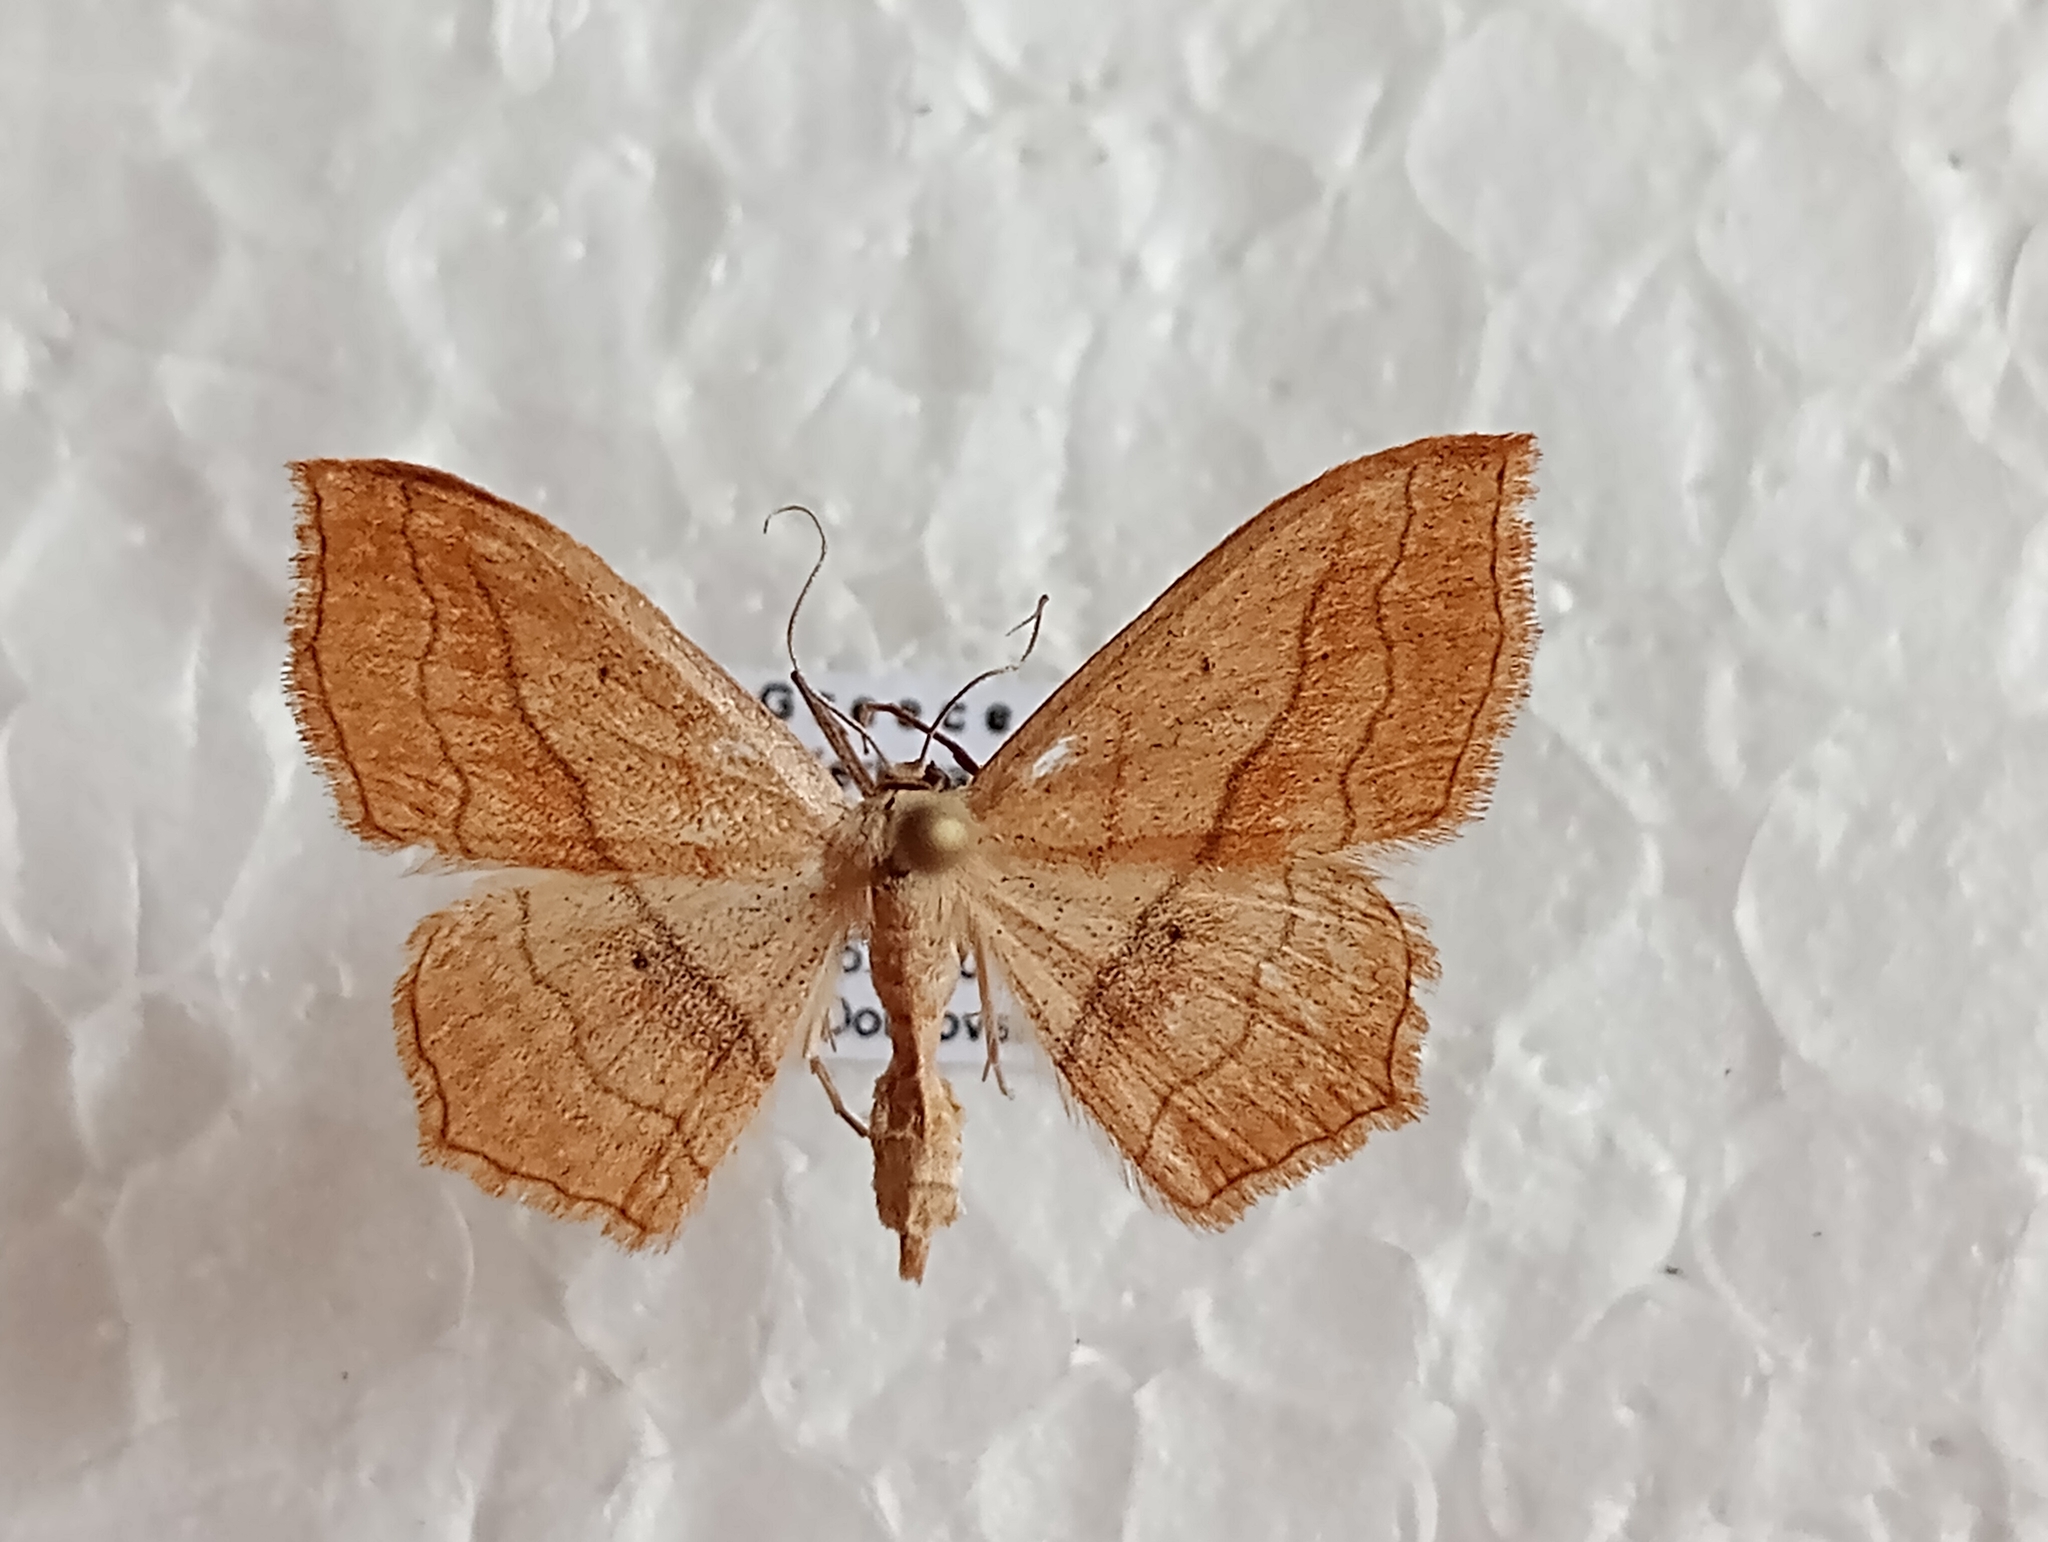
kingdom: Animalia
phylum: Arthropoda
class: Insecta
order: Lepidoptera
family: Geometridae
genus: Scopula
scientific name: Scopula imitaria
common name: Small blood-vein
